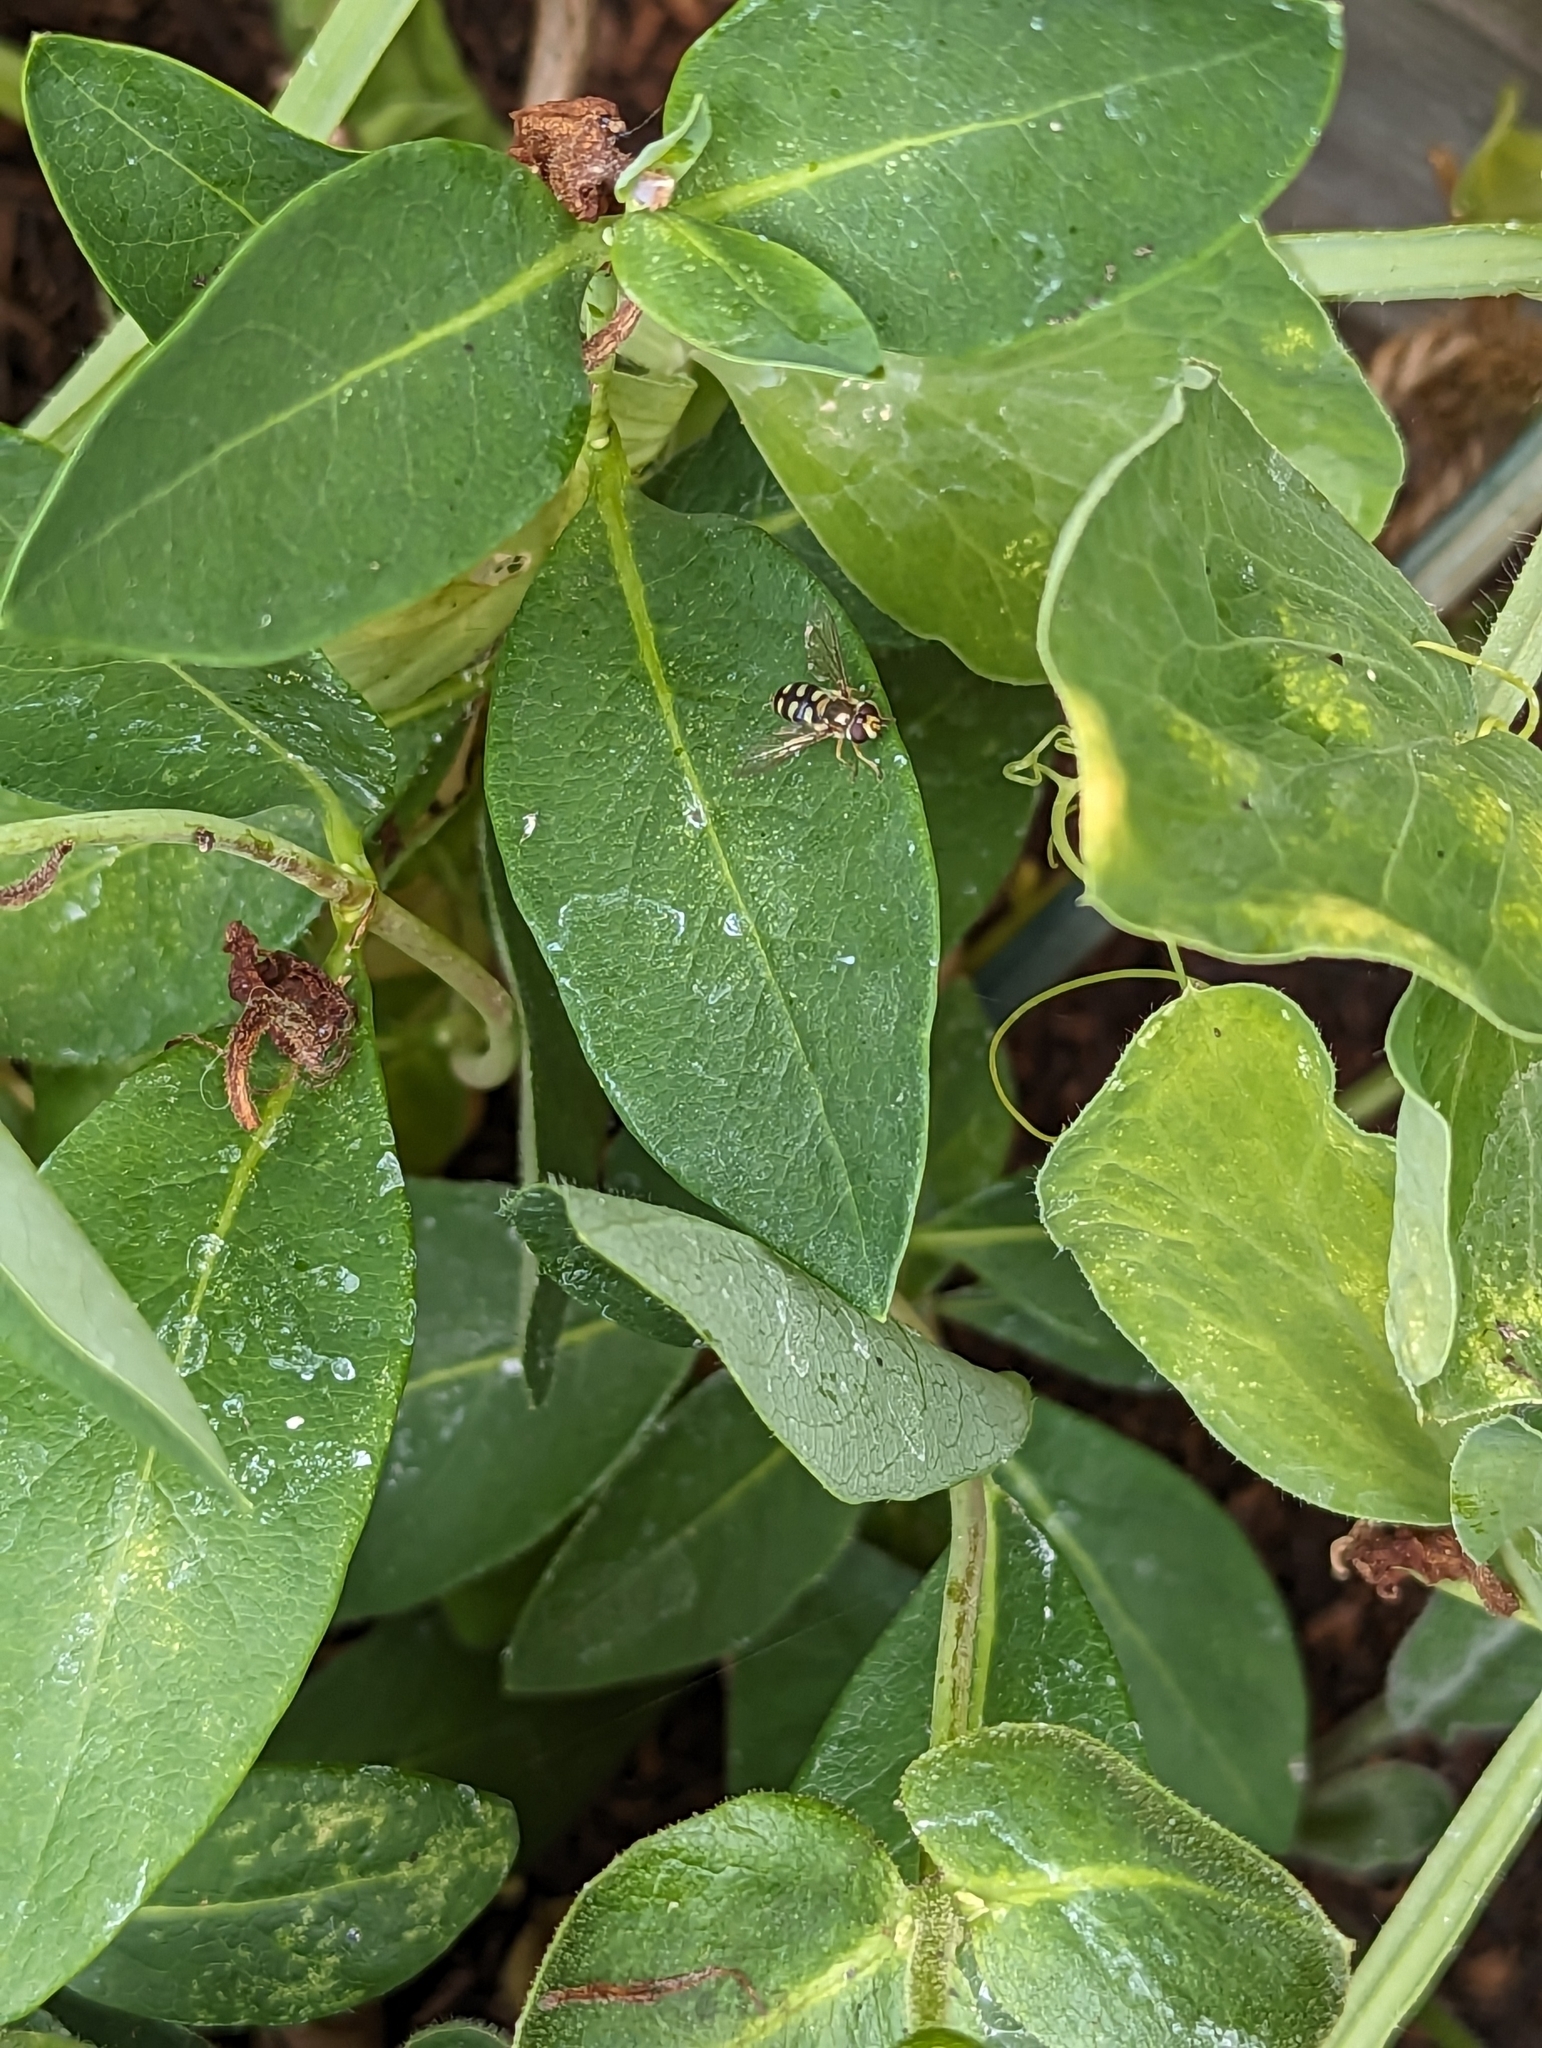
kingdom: Animalia
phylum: Arthropoda
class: Insecta
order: Diptera
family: Syrphidae
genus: Eupeodes
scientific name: Eupeodes corollae
